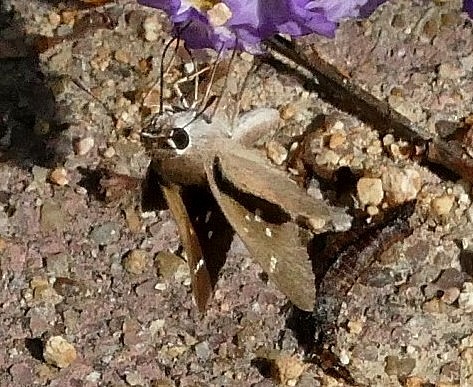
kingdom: Animalia
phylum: Arthropoda
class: Insecta
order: Lepidoptera
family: Hesperiidae
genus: Lerodea
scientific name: Lerodea eufala
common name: Eufala skipper
